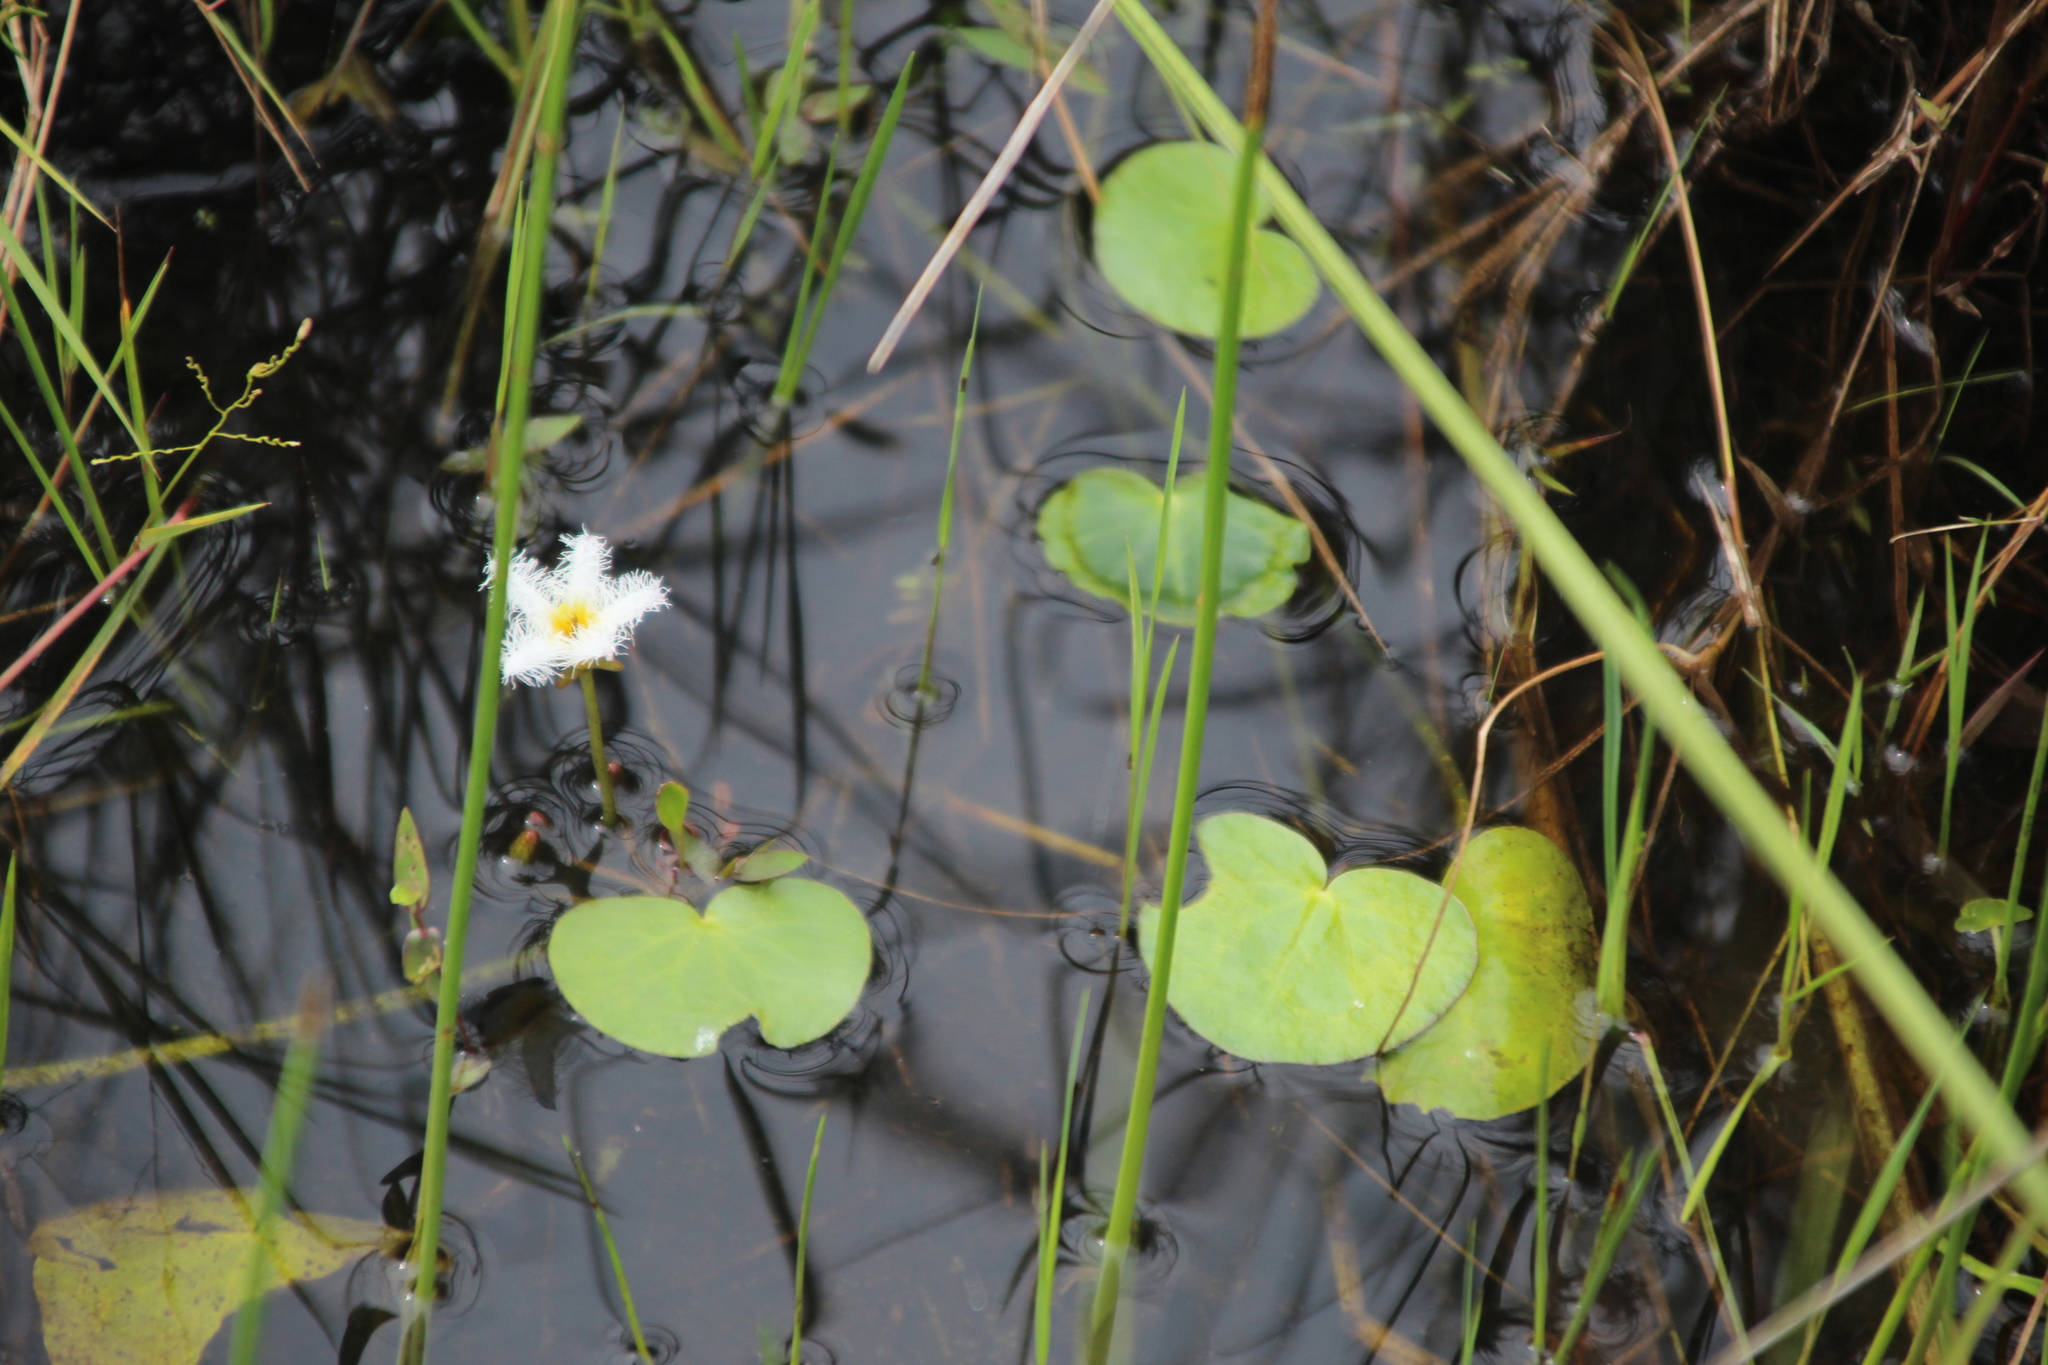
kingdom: Plantae
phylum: Tracheophyta
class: Magnoliopsida
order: Asterales
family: Menyanthaceae
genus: Nymphoides
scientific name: Nymphoides senegalensis
